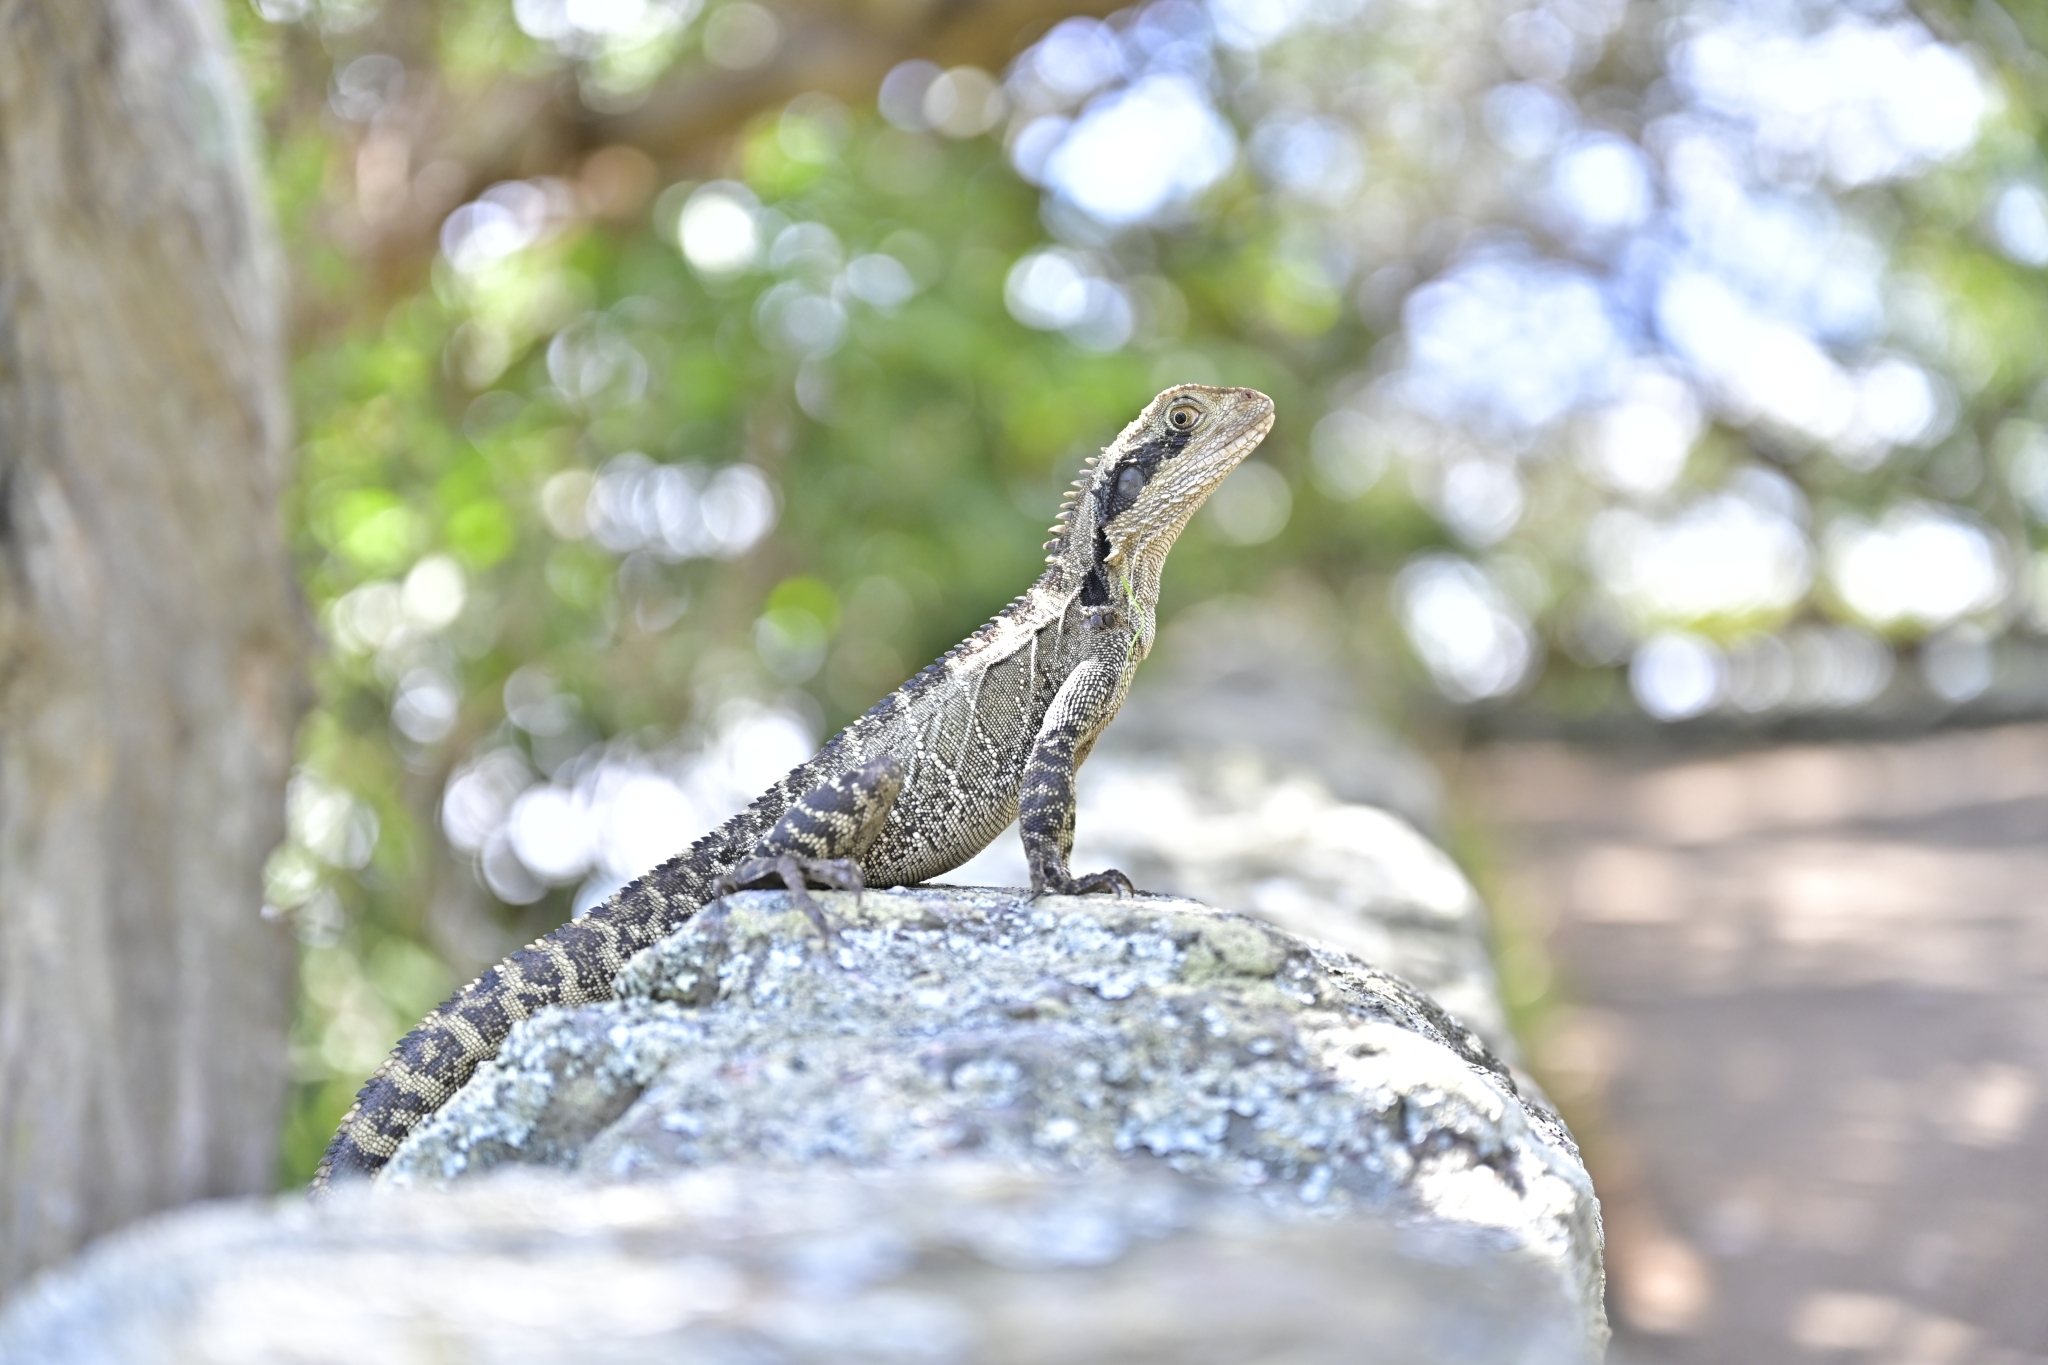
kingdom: Animalia
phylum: Chordata
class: Squamata
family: Agamidae
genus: Intellagama
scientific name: Intellagama lesueurii
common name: Eastern water dragon
